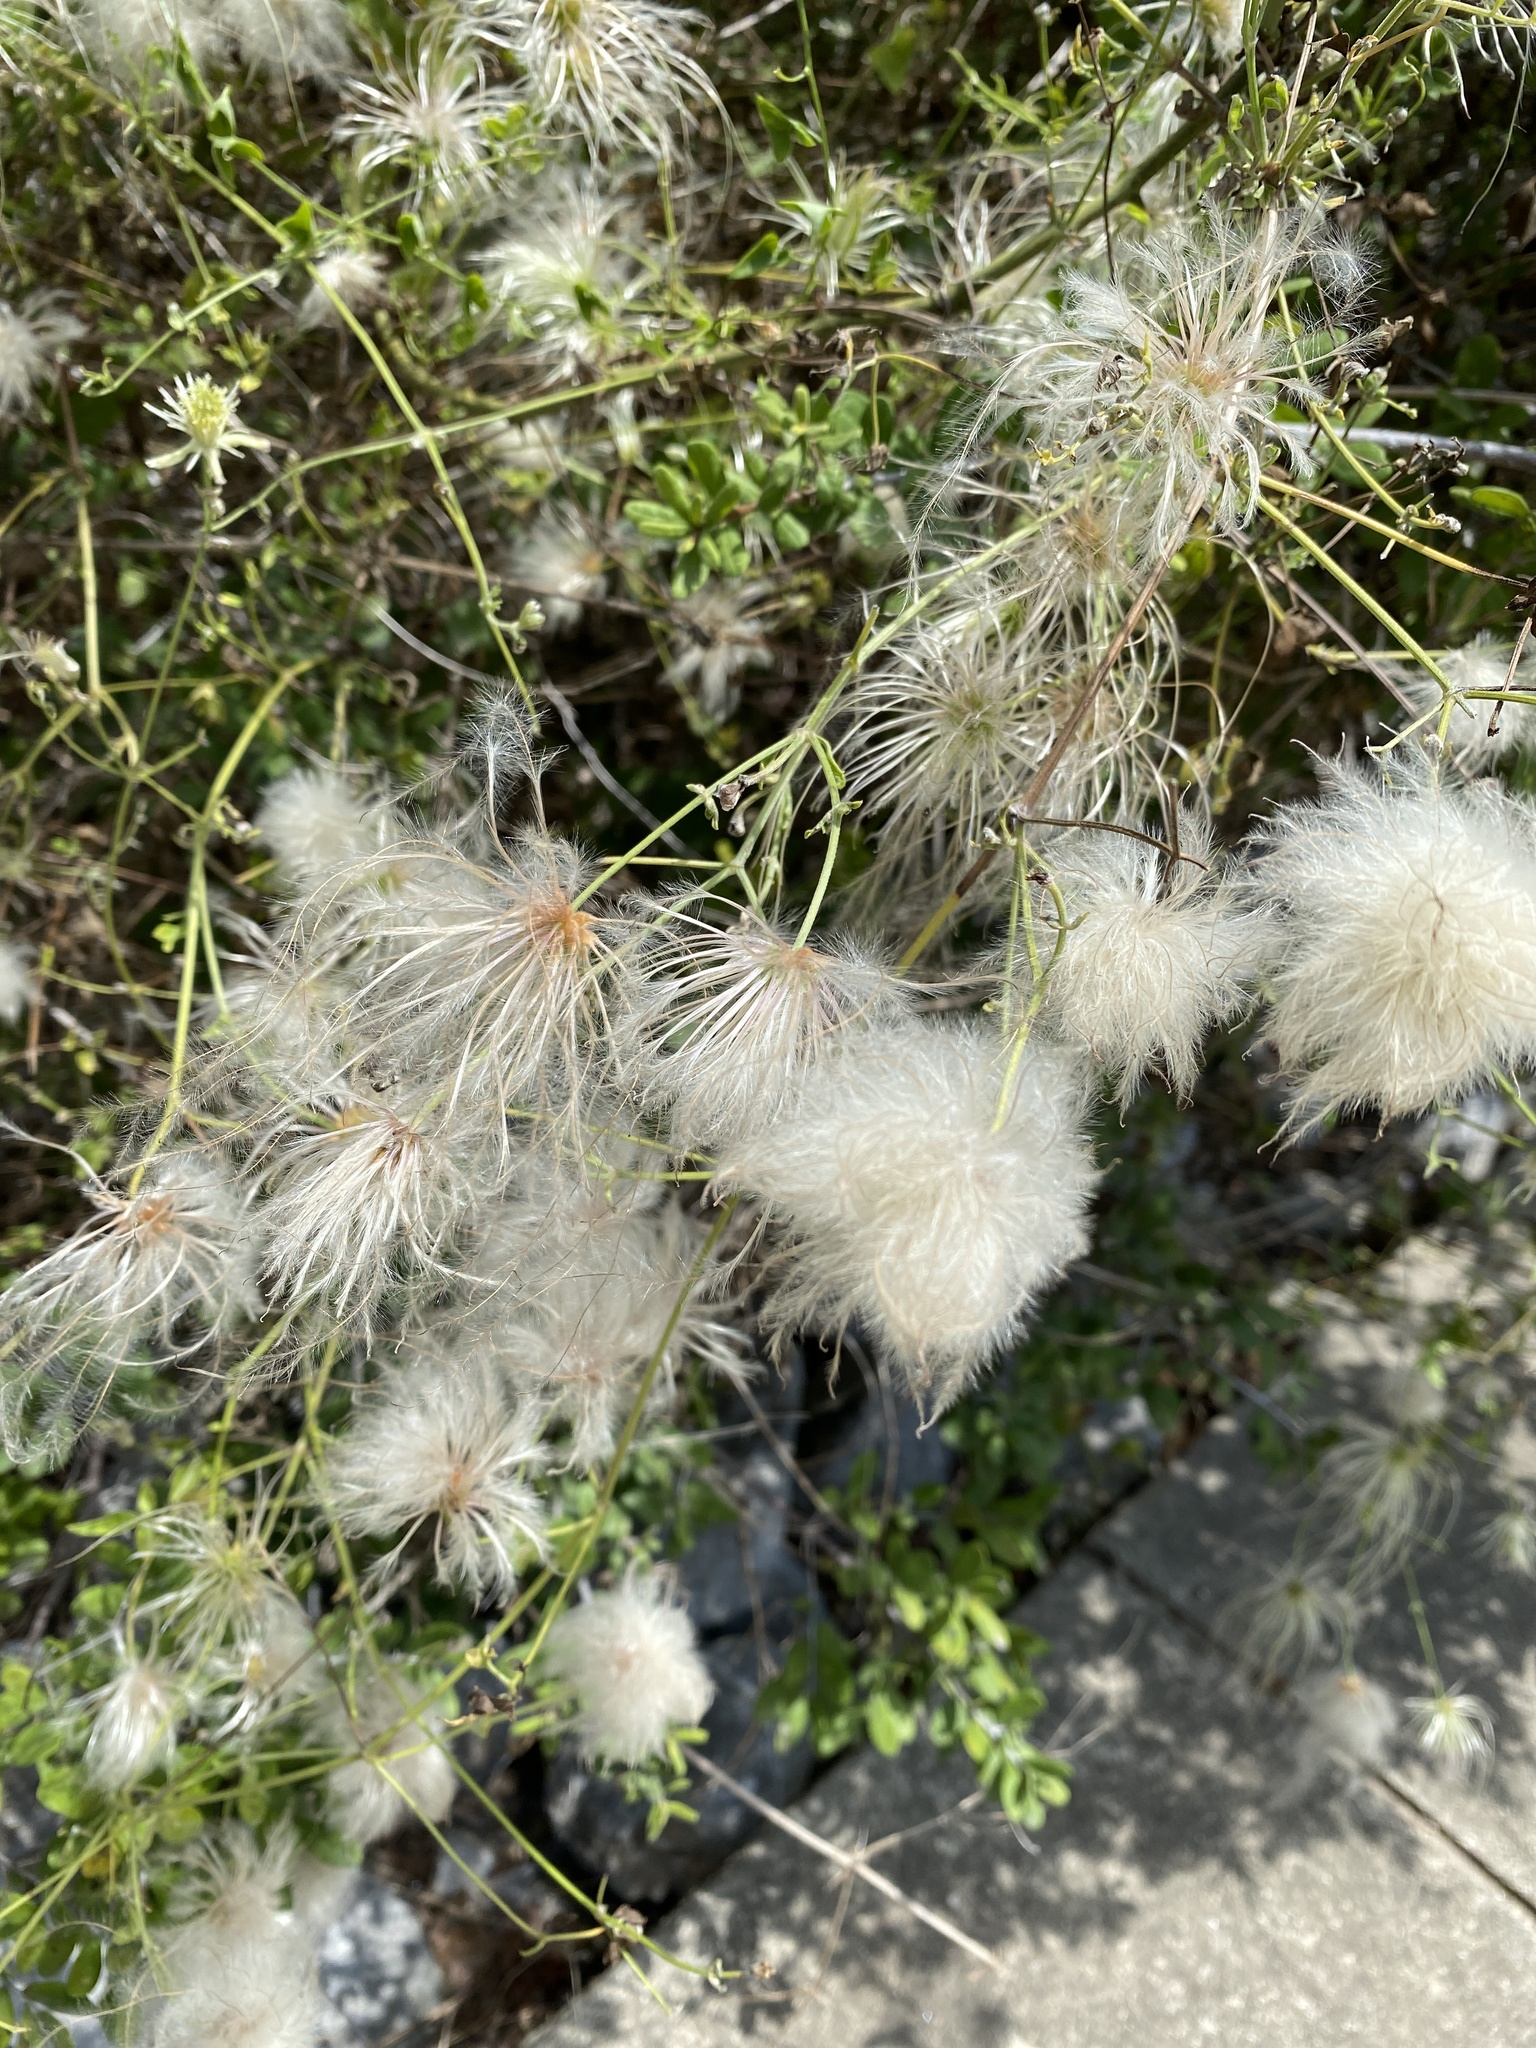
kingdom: Plantae
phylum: Tracheophyta
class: Magnoliopsida
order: Ranunculales
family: Ranunculaceae
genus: Clematis
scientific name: Clematis drummondii
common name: Texas virgin's bower
